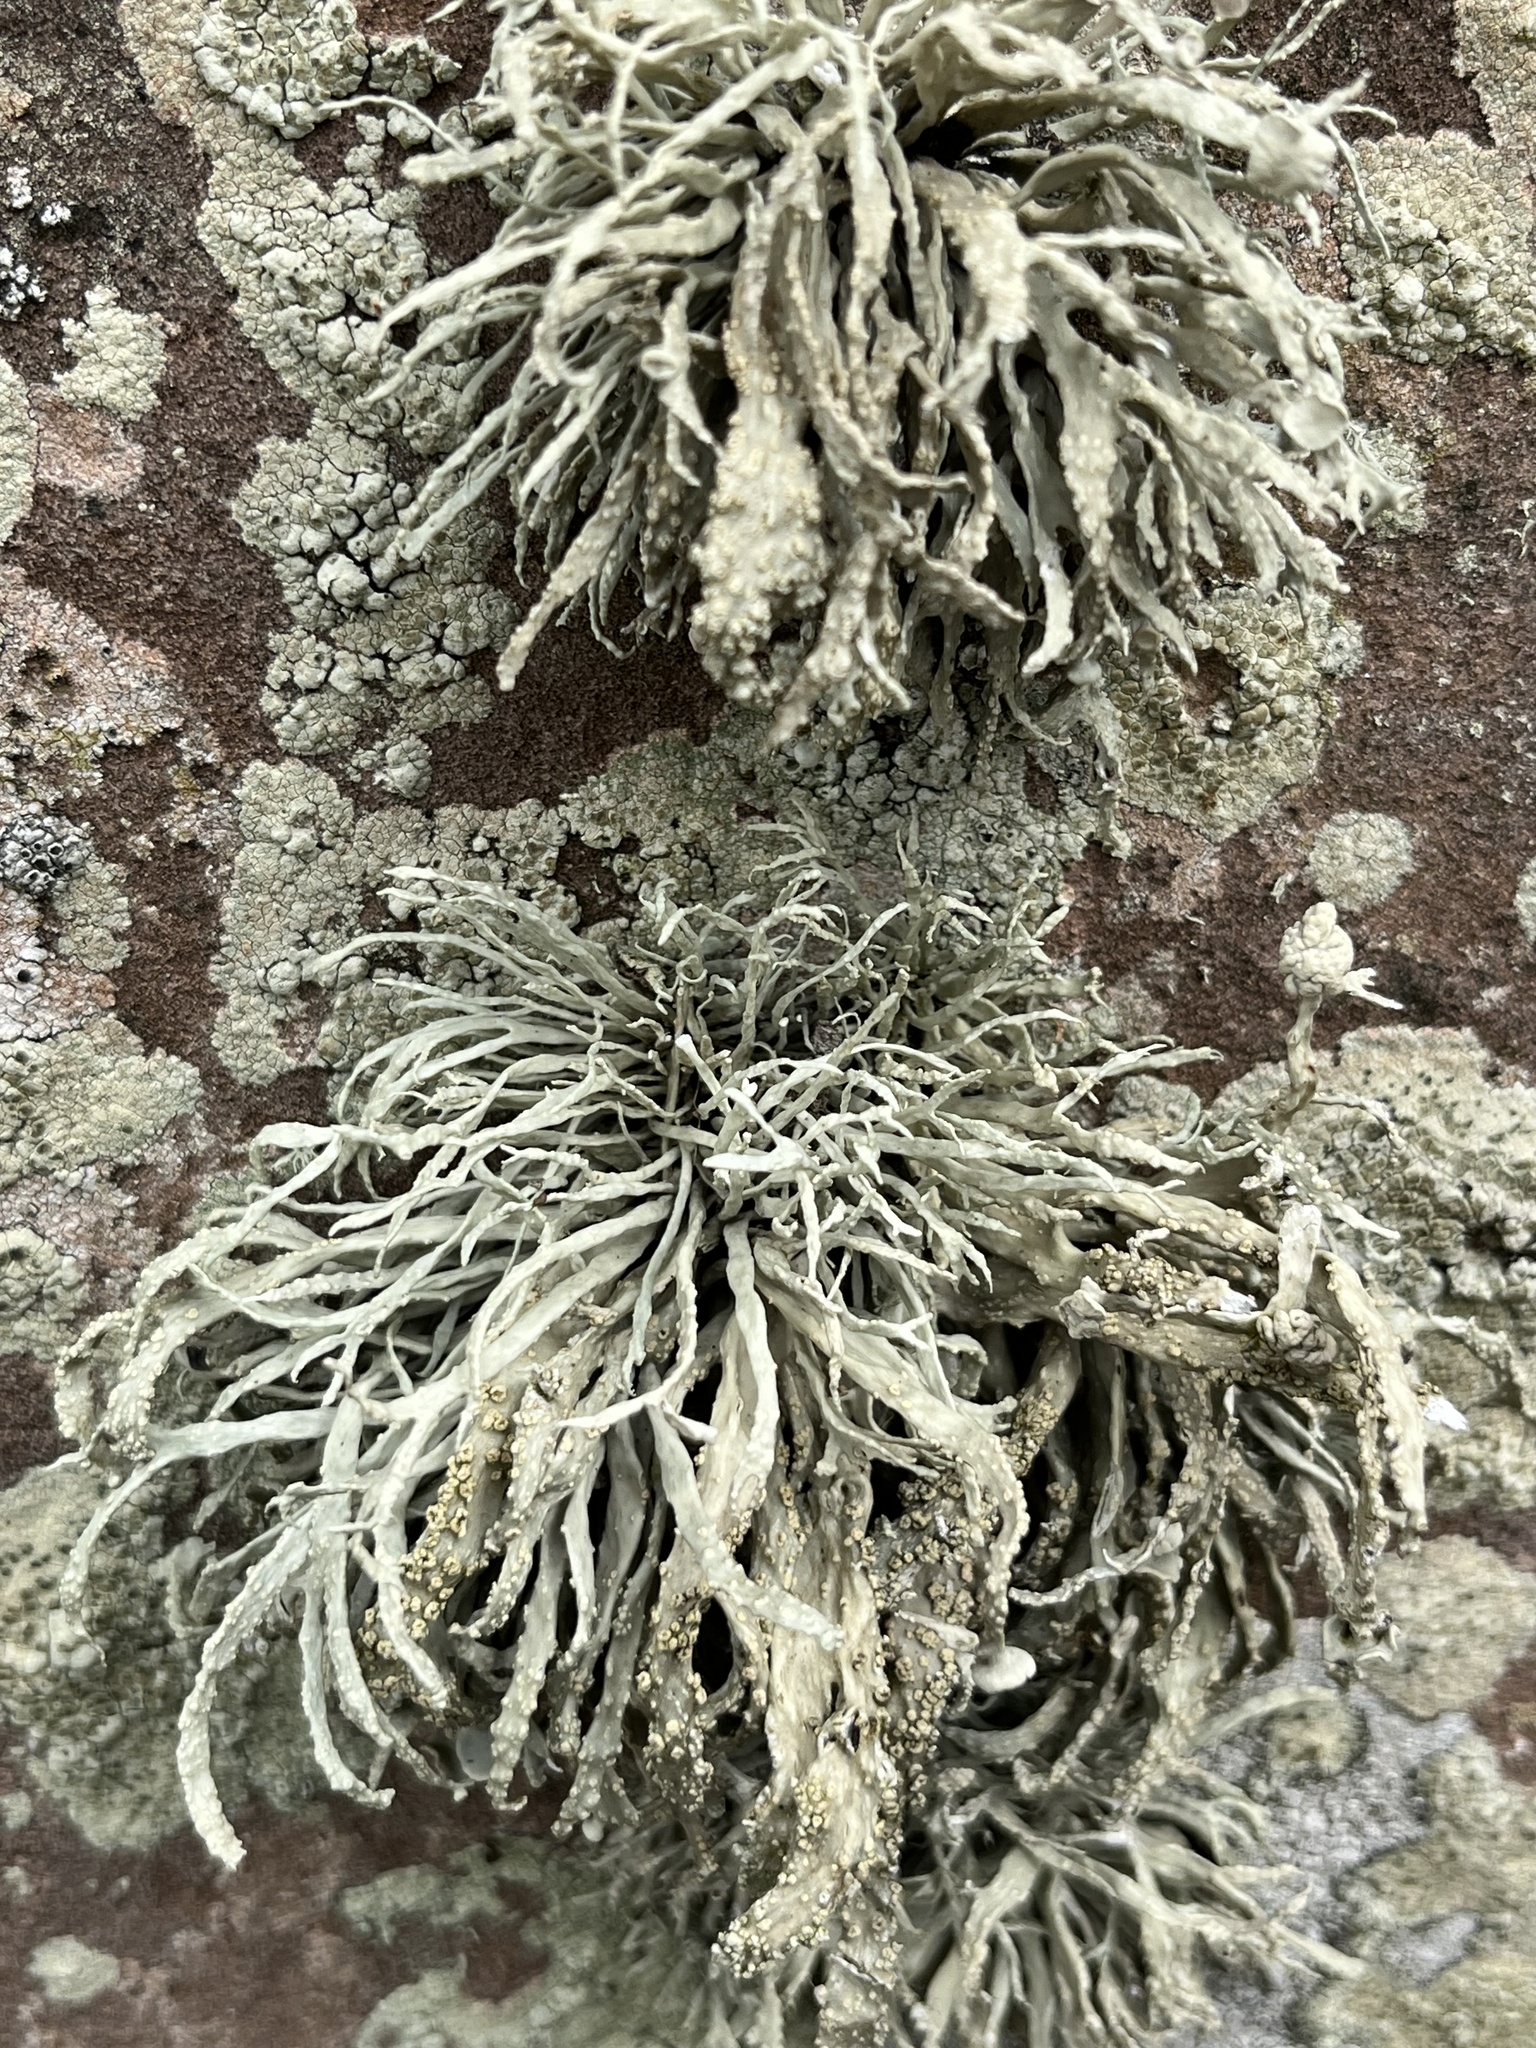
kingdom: Fungi
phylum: Ascomycota
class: Lecanoromycetes
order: Lecanorales
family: Ramalinaceae
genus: Ramalina
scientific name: Ramalina siliquosa
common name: Sea ivory
